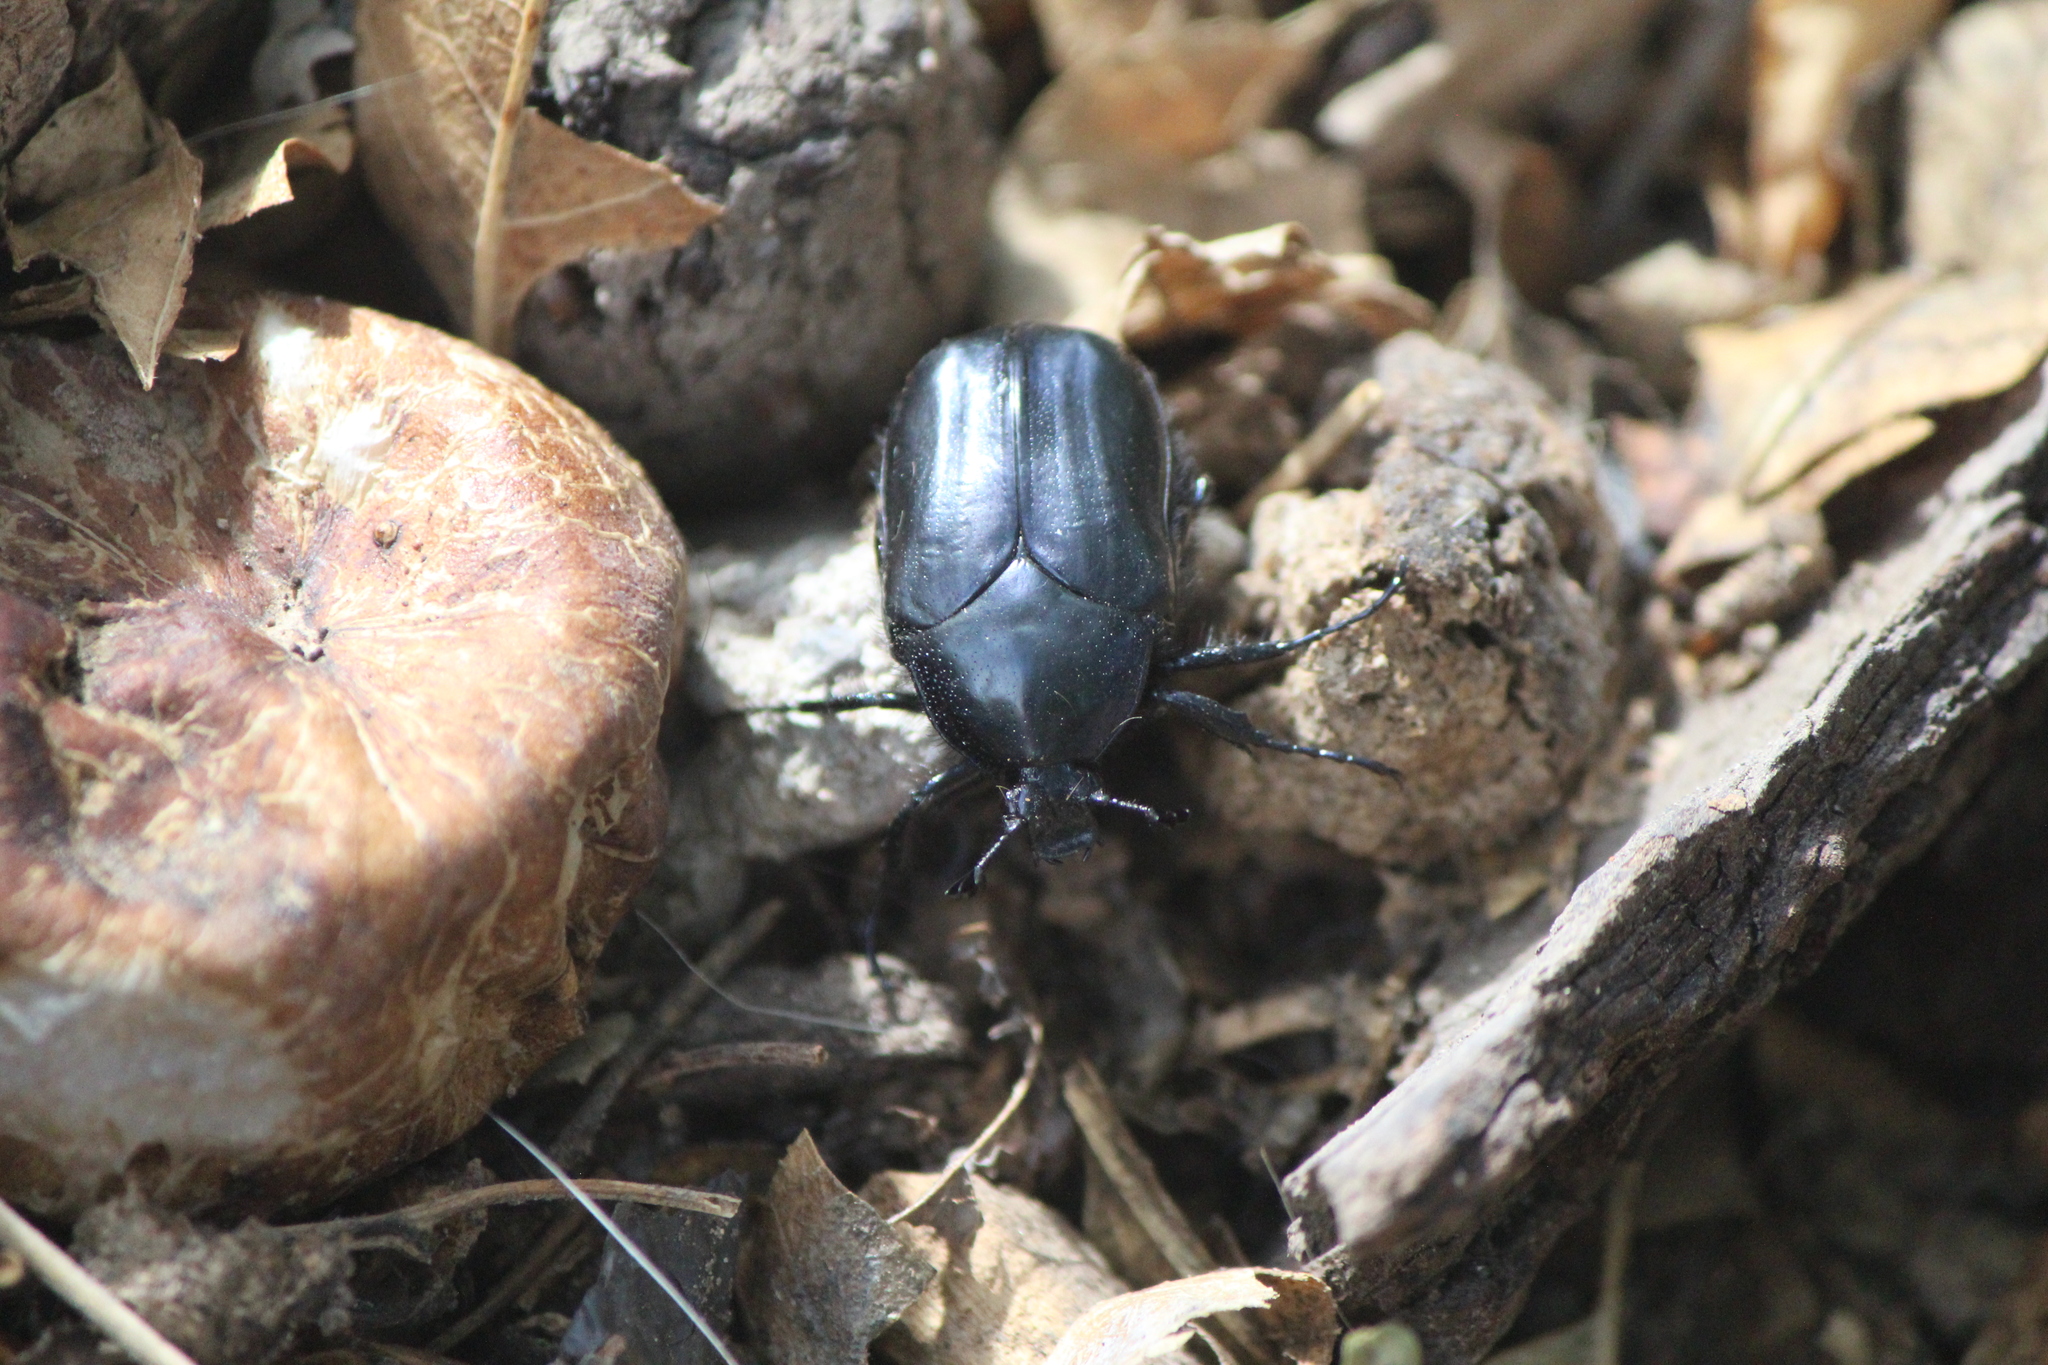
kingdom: Animalia
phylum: Arthropoda
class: Insecta
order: Coleoptera
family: Scarabaeidae
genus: Cotinis
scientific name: Cotinis antonii
